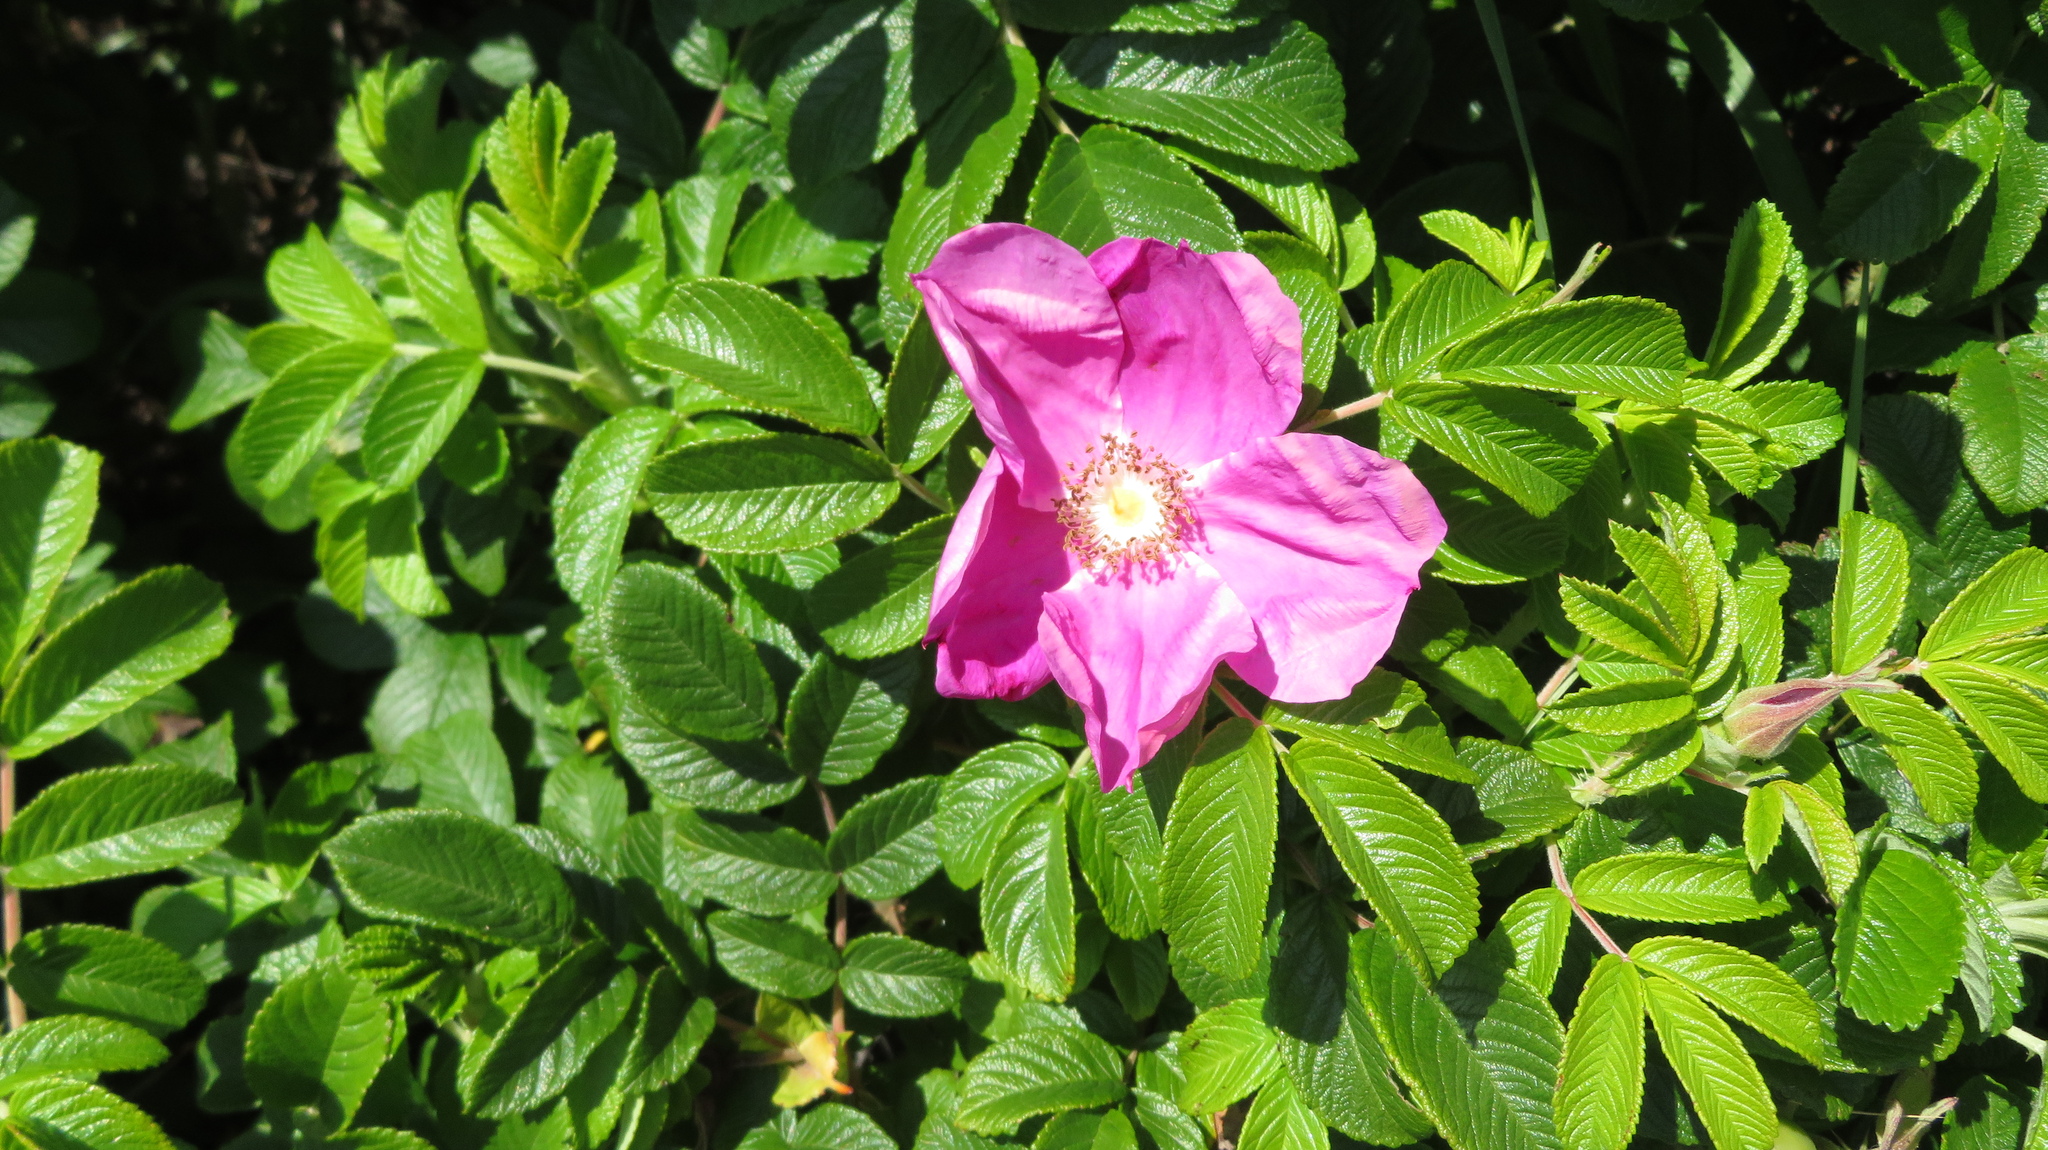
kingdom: Plantae
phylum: Tracheophyta
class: Magnoliopsida
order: Rosales
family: Rosaceae
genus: Rosa
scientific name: Rosa rugosa
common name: Japanese rose
